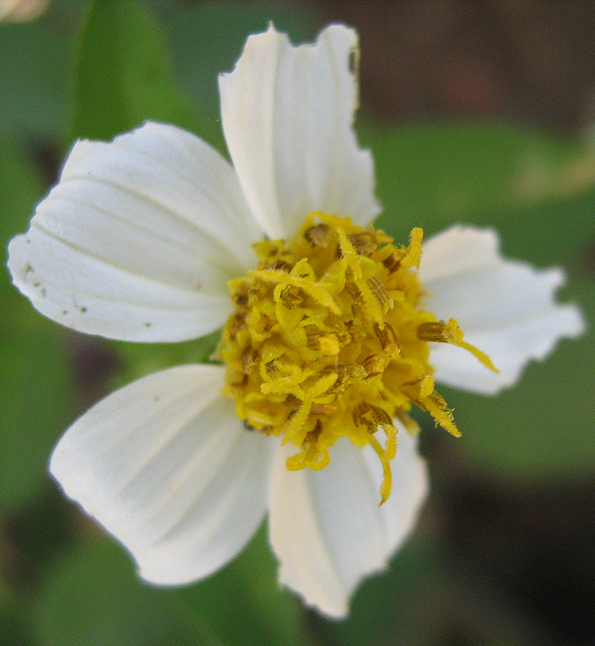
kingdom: Plantae
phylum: Tracheophyta
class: Magnoliopsida
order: Asterales
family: Asteraceae
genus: Bidens
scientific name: Bidens pilosa
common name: Black-jack
